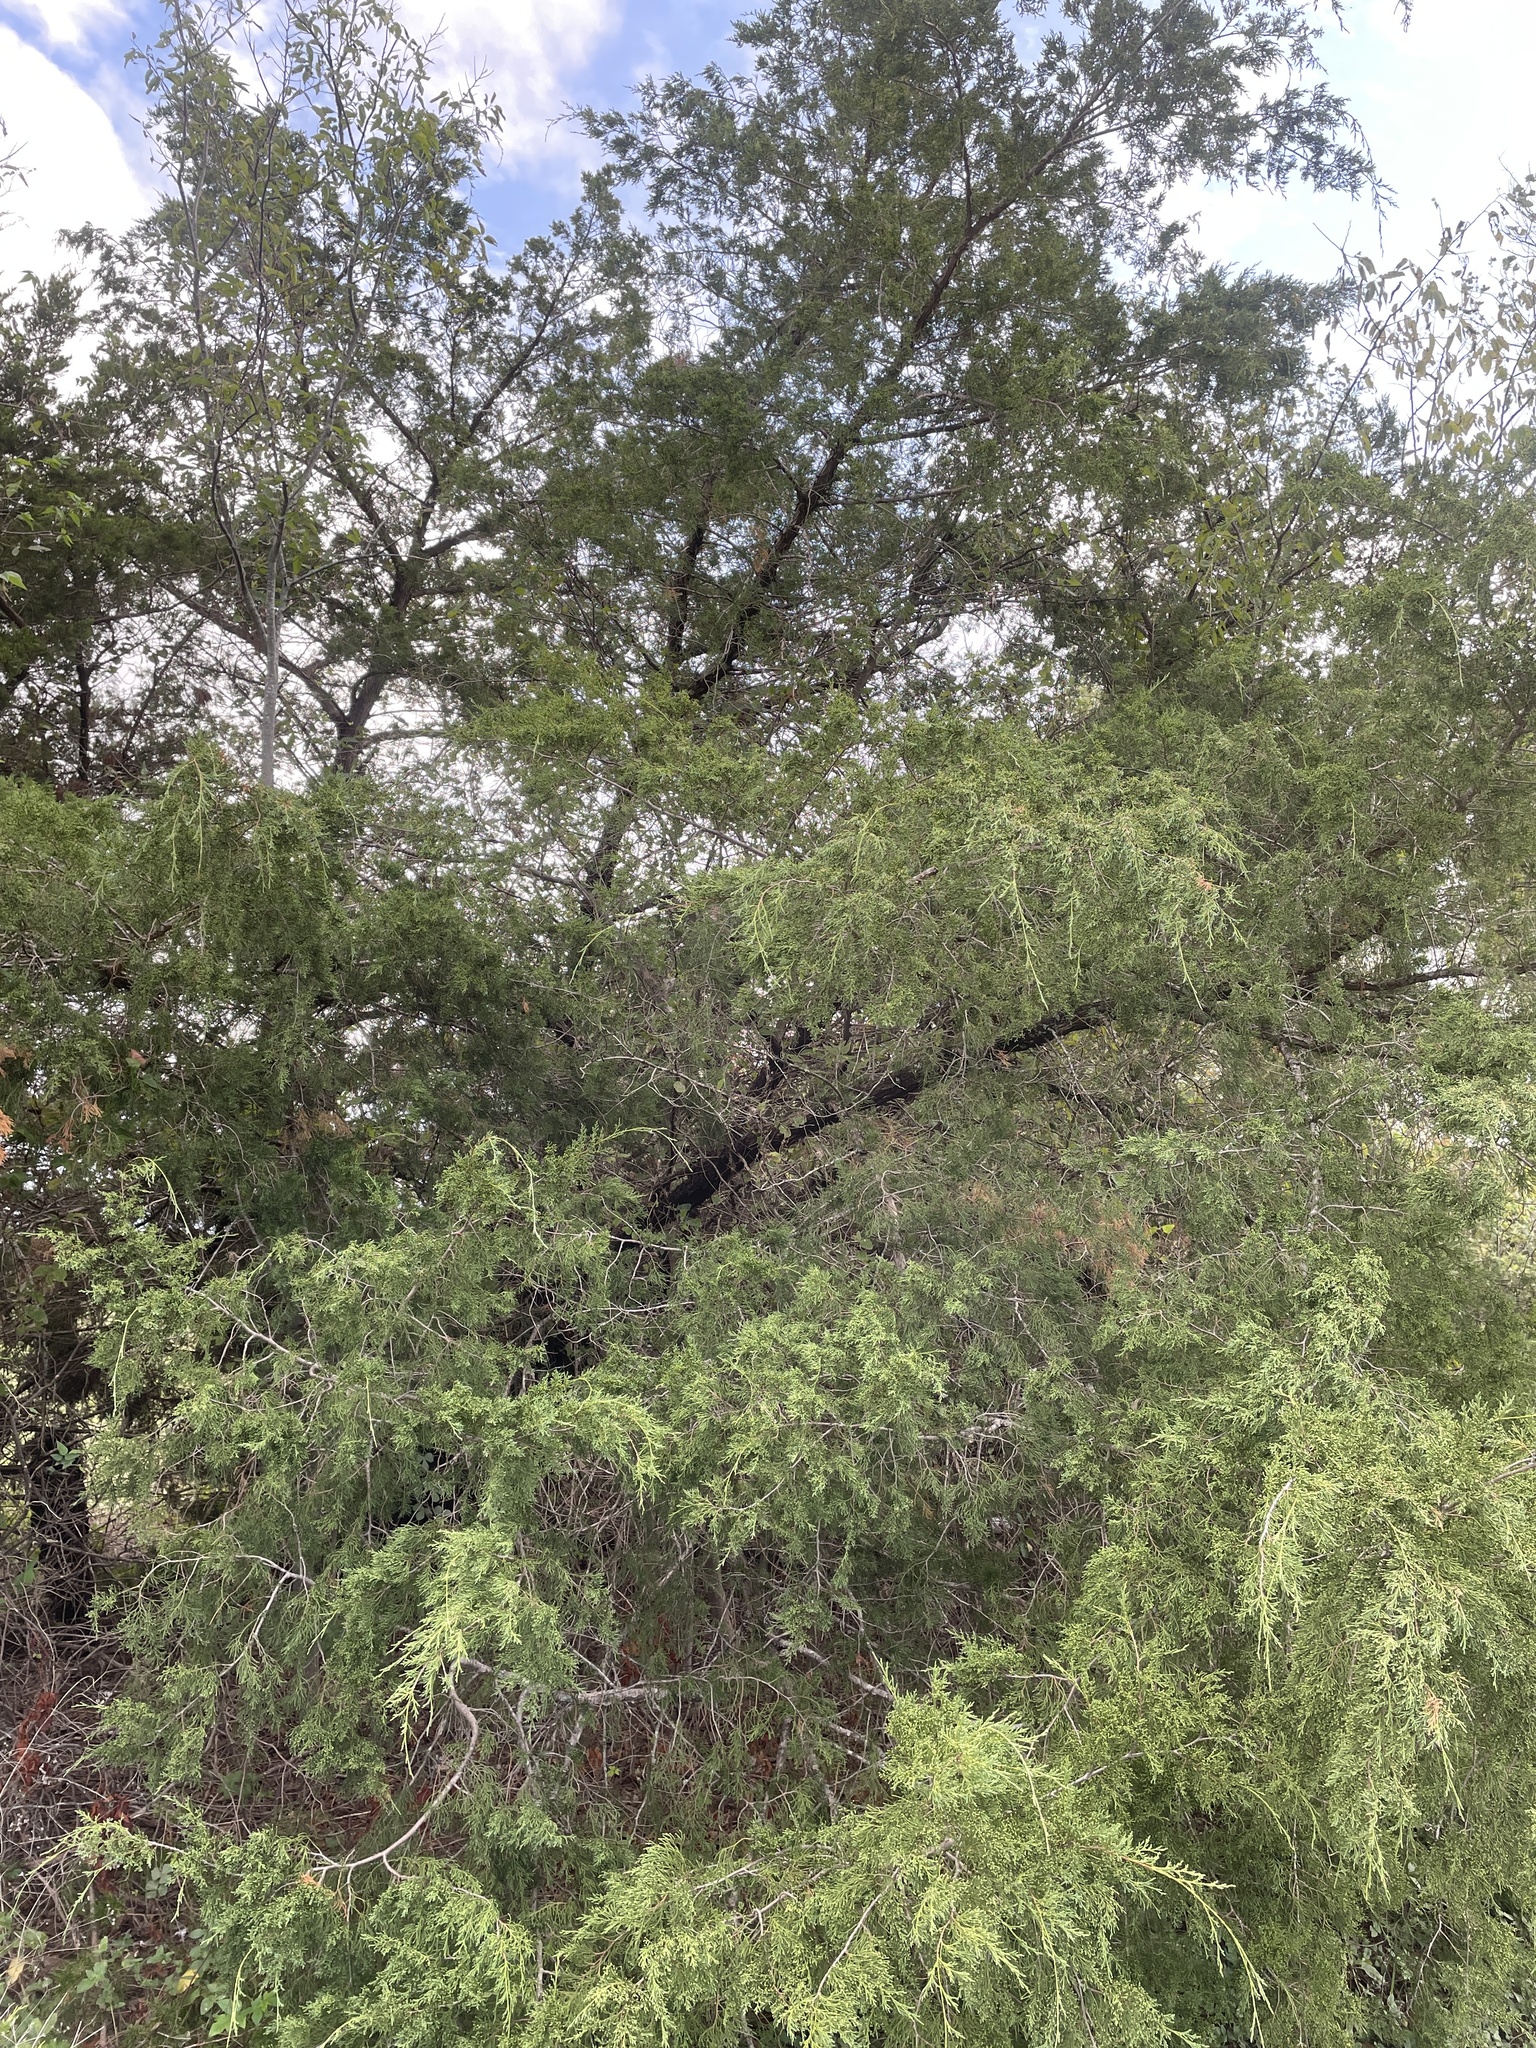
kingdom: Plantae
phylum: Tracheophyta
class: Pinopsida
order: Pinales
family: Cupressaceae
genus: Juniperus
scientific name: Juniperus virginiana
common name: Red juniper
